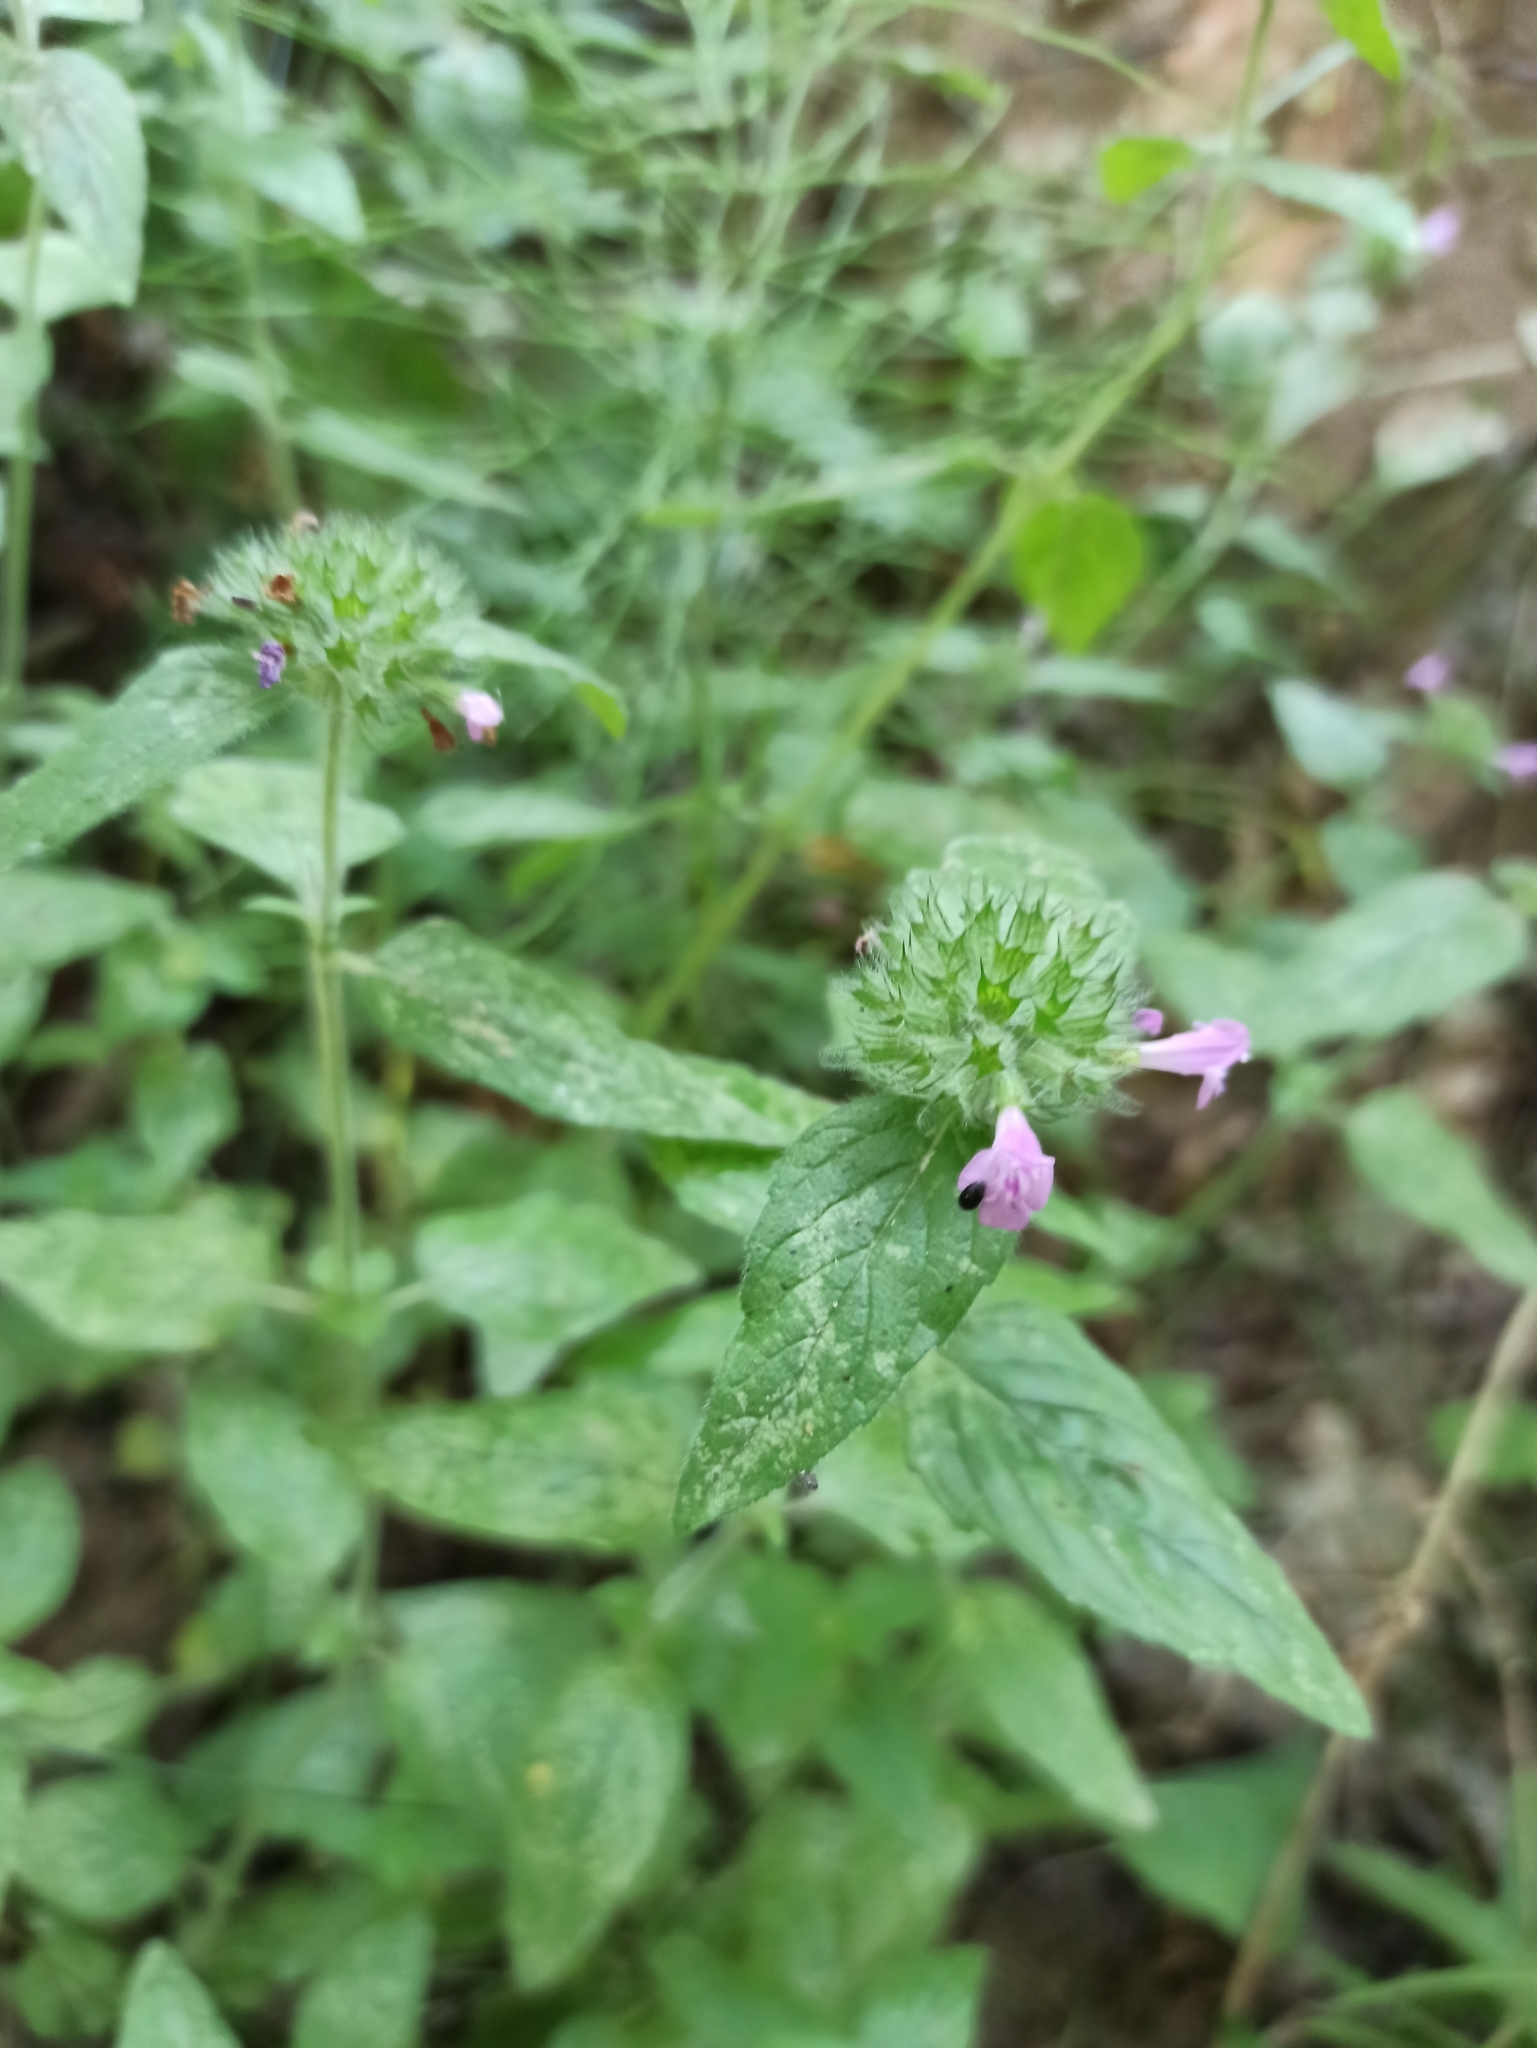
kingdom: Plantae
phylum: Tracheophyta
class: Magnoliopsida
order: Lamiales
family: Lamiaceae
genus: Clinopodium
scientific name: Clinopodium vulgare
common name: Wild basil
